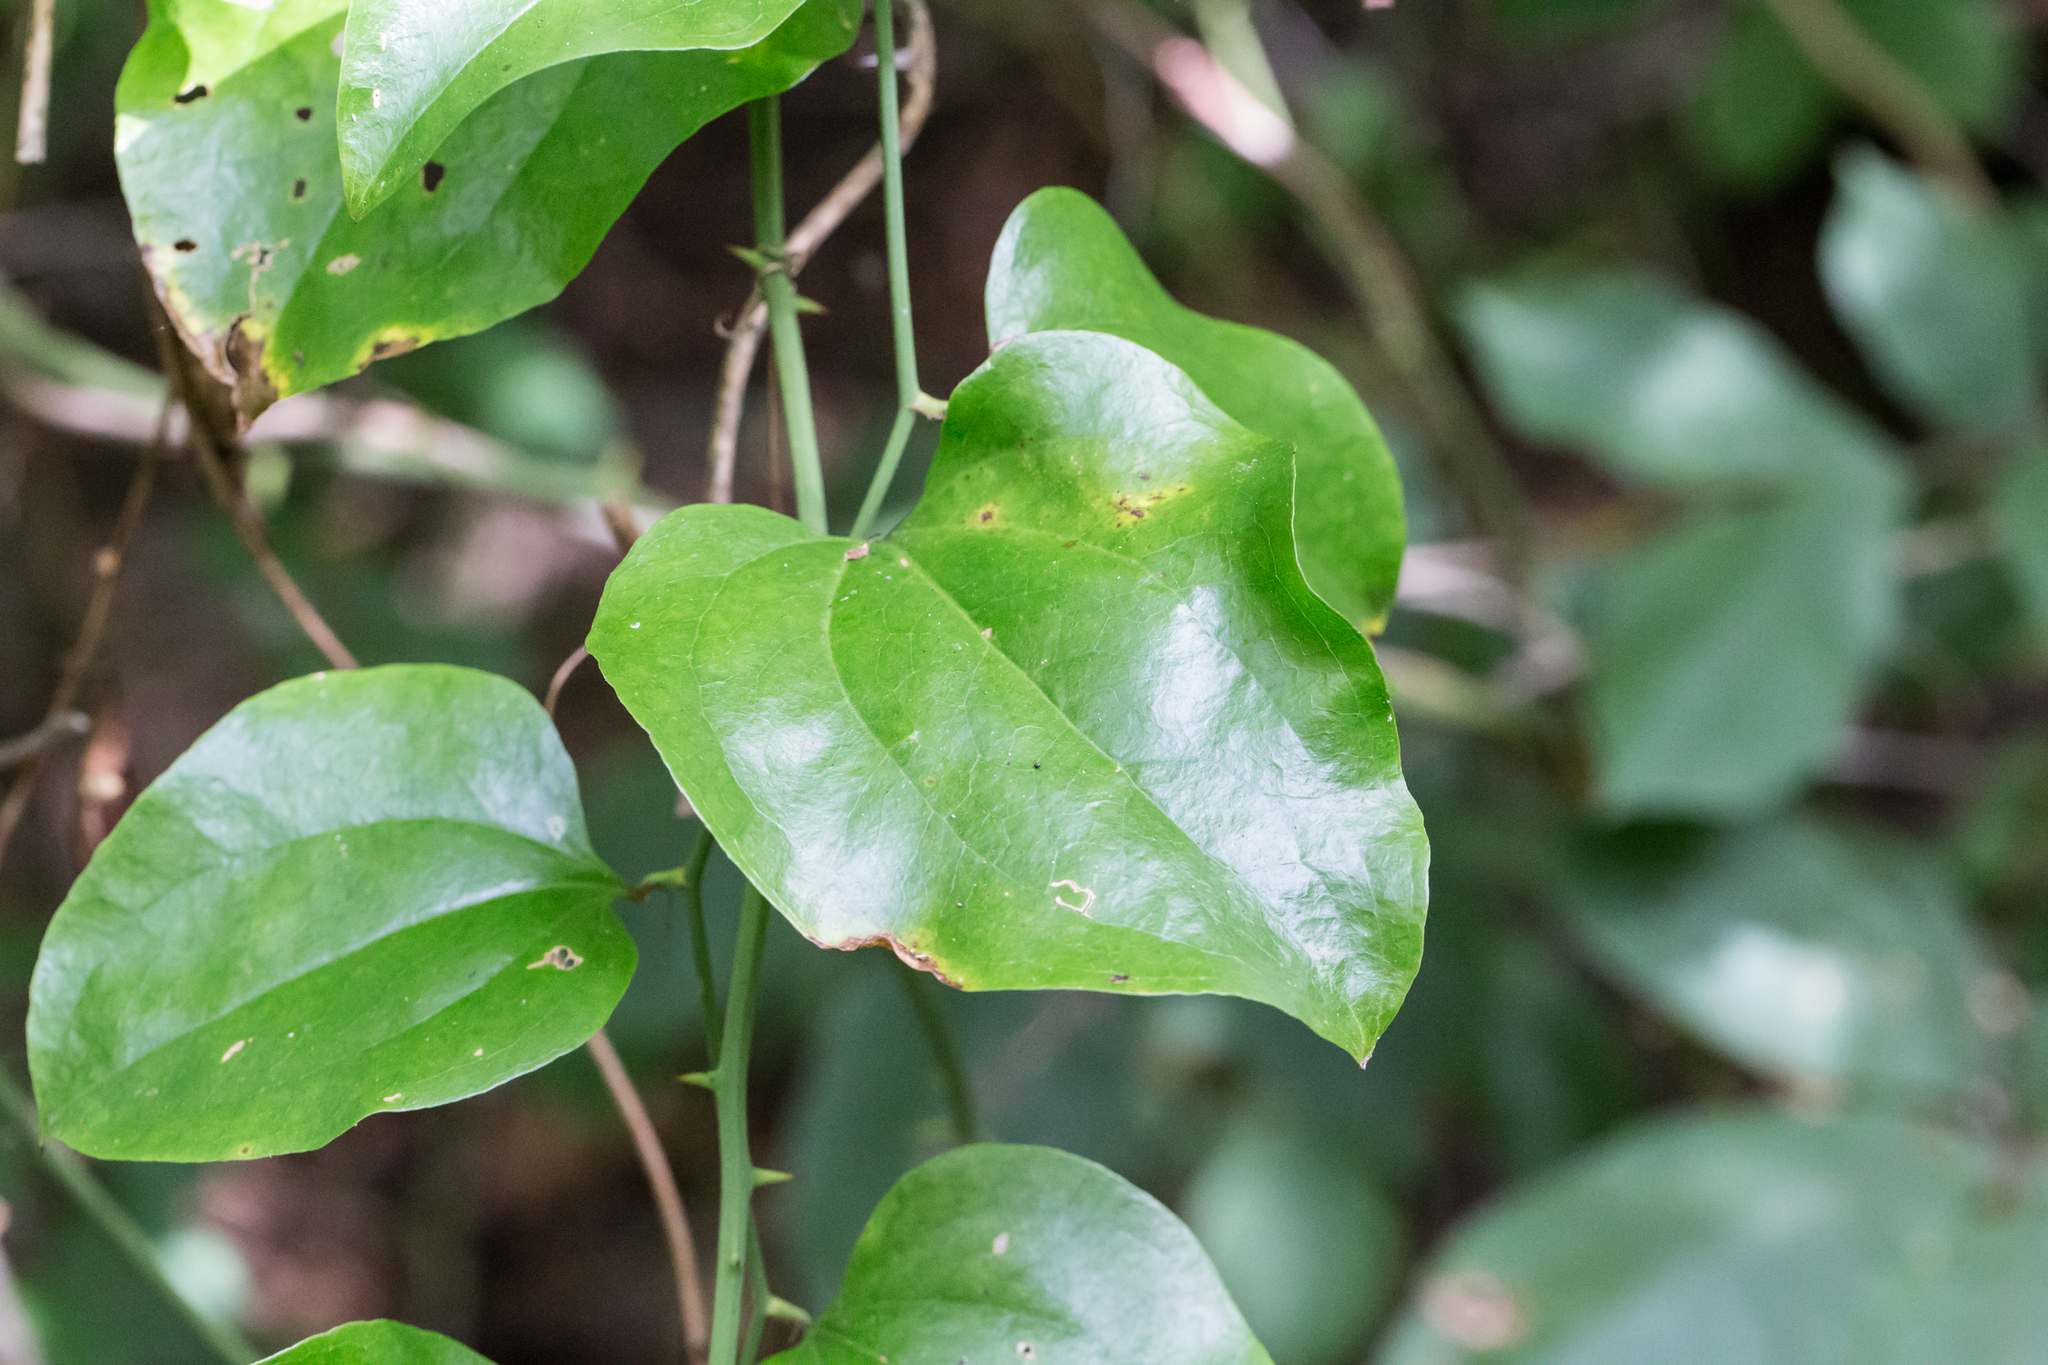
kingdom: Plantae
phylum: Tracheophyta
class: Liliopsida
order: Liliales
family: Smilacaceae
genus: Smilax
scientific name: Smilax rotundifolia
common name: Bullbriar
